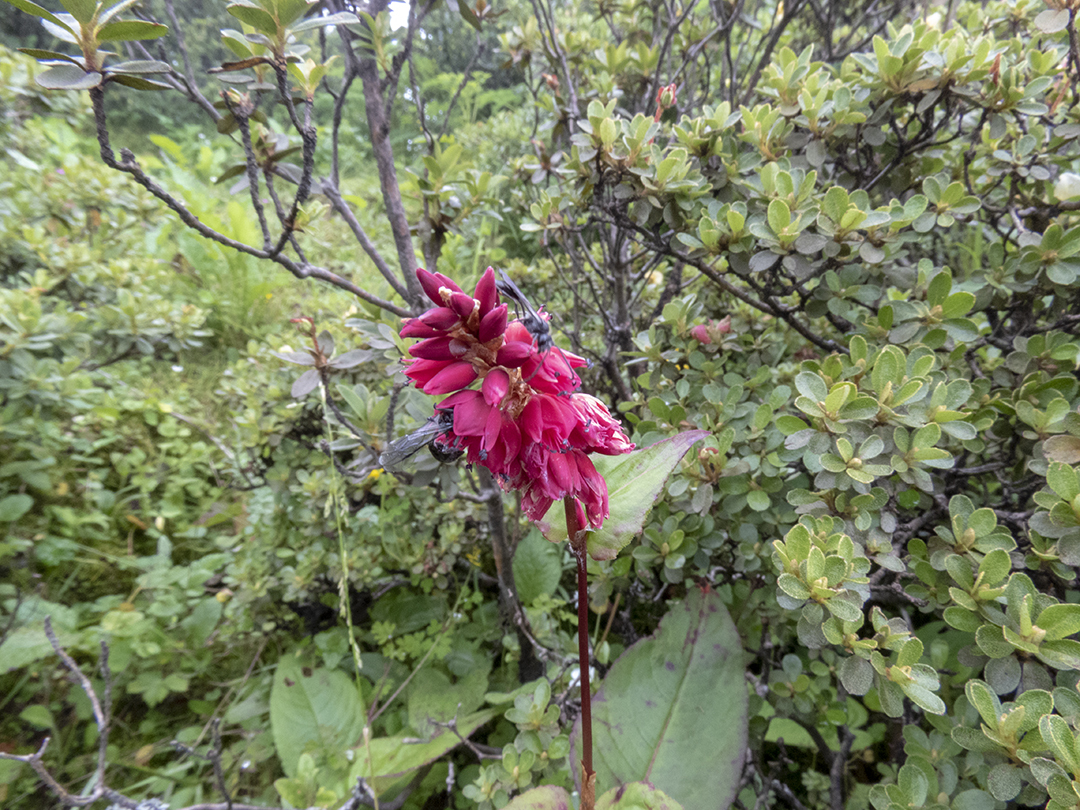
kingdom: Plantae
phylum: Tracheophyta
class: Magnoliopsida
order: Caryophyllales
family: Polygonaceae
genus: Bistorta
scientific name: Bistorta amplexicaulis
